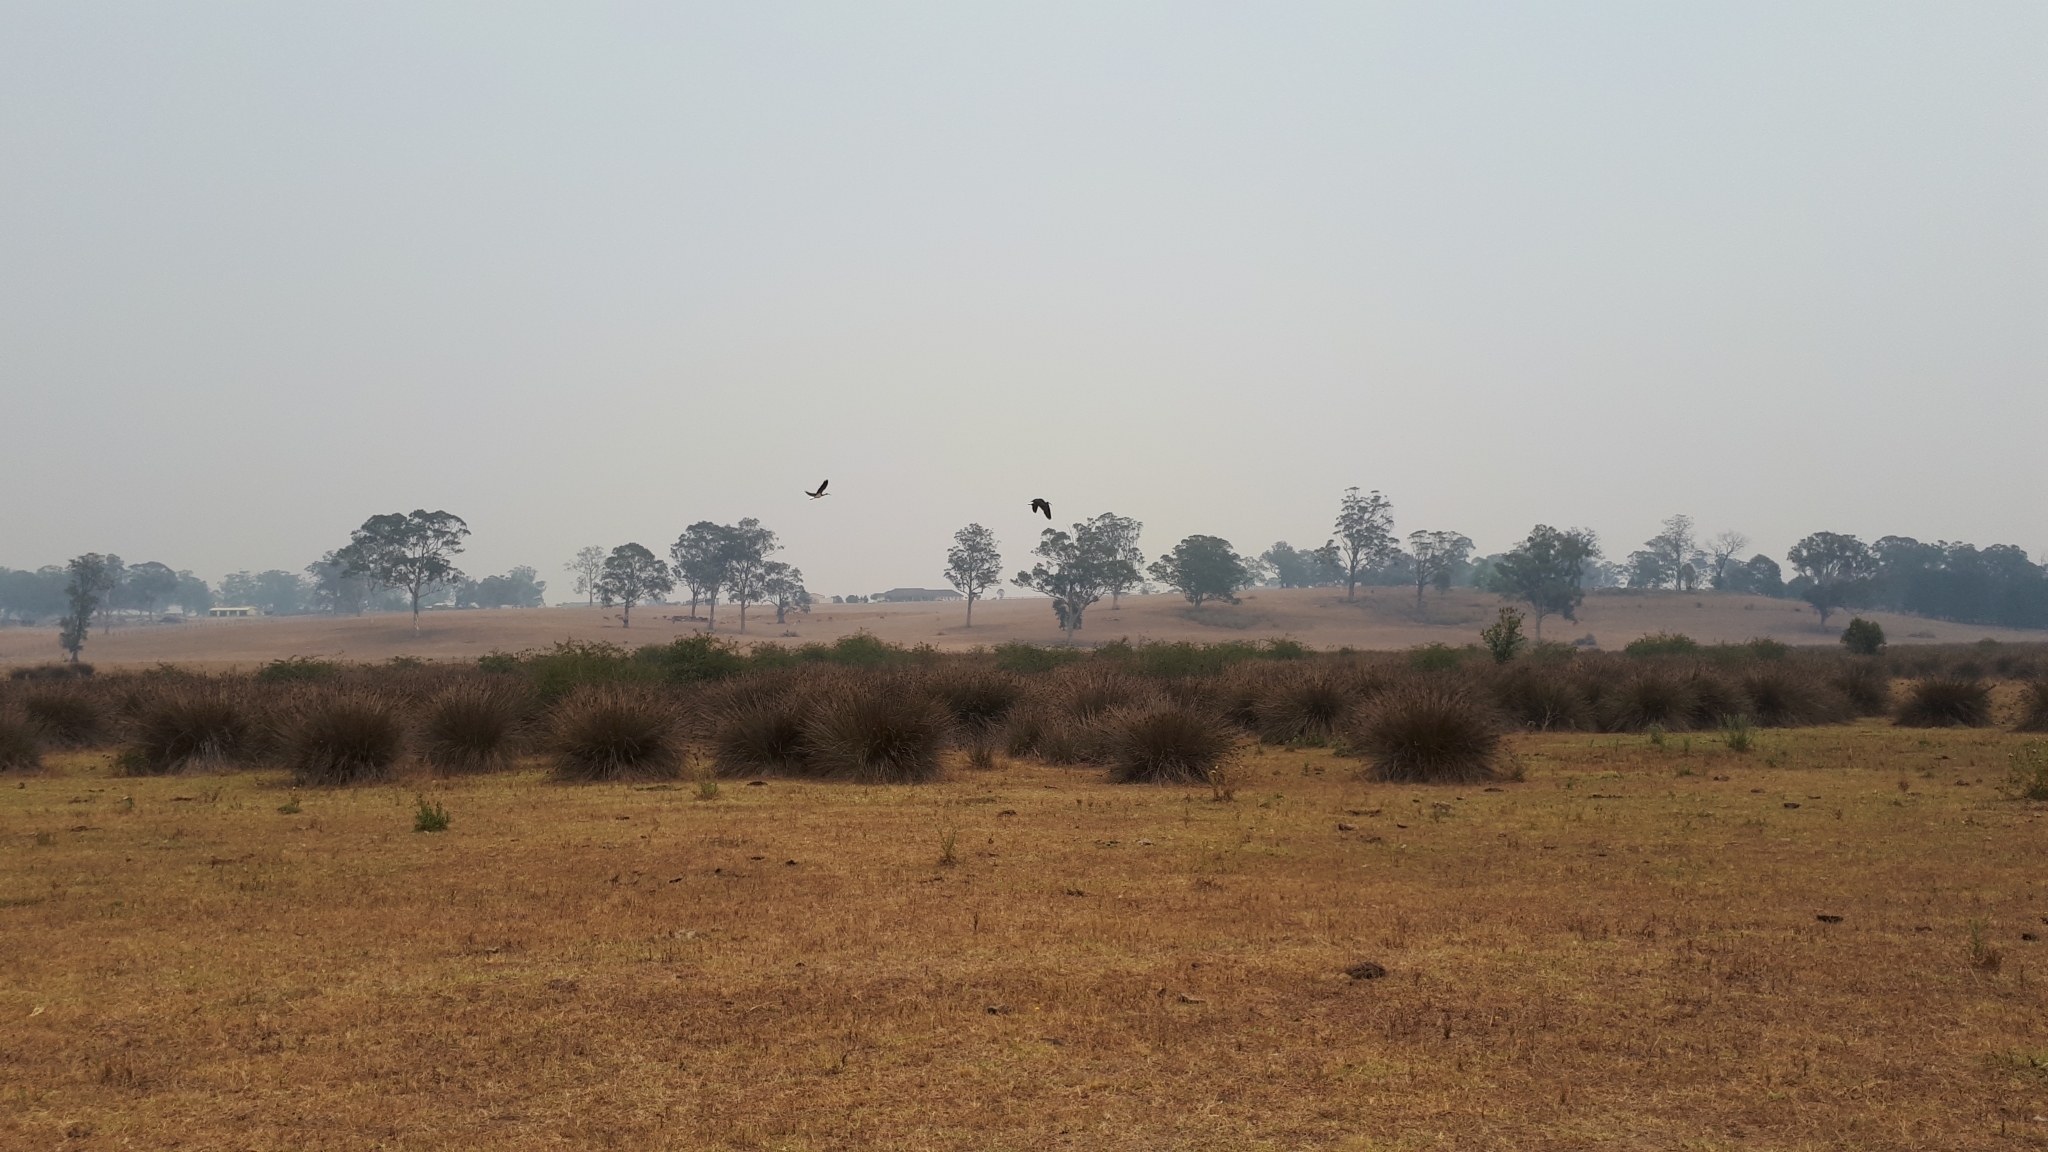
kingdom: Animalia
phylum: Chordata
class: Aves
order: Pelecaniformes
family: Threskiornithidae
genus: Threskiornis
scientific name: Threskiornis spinicollis
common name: Straw-necked ibis
